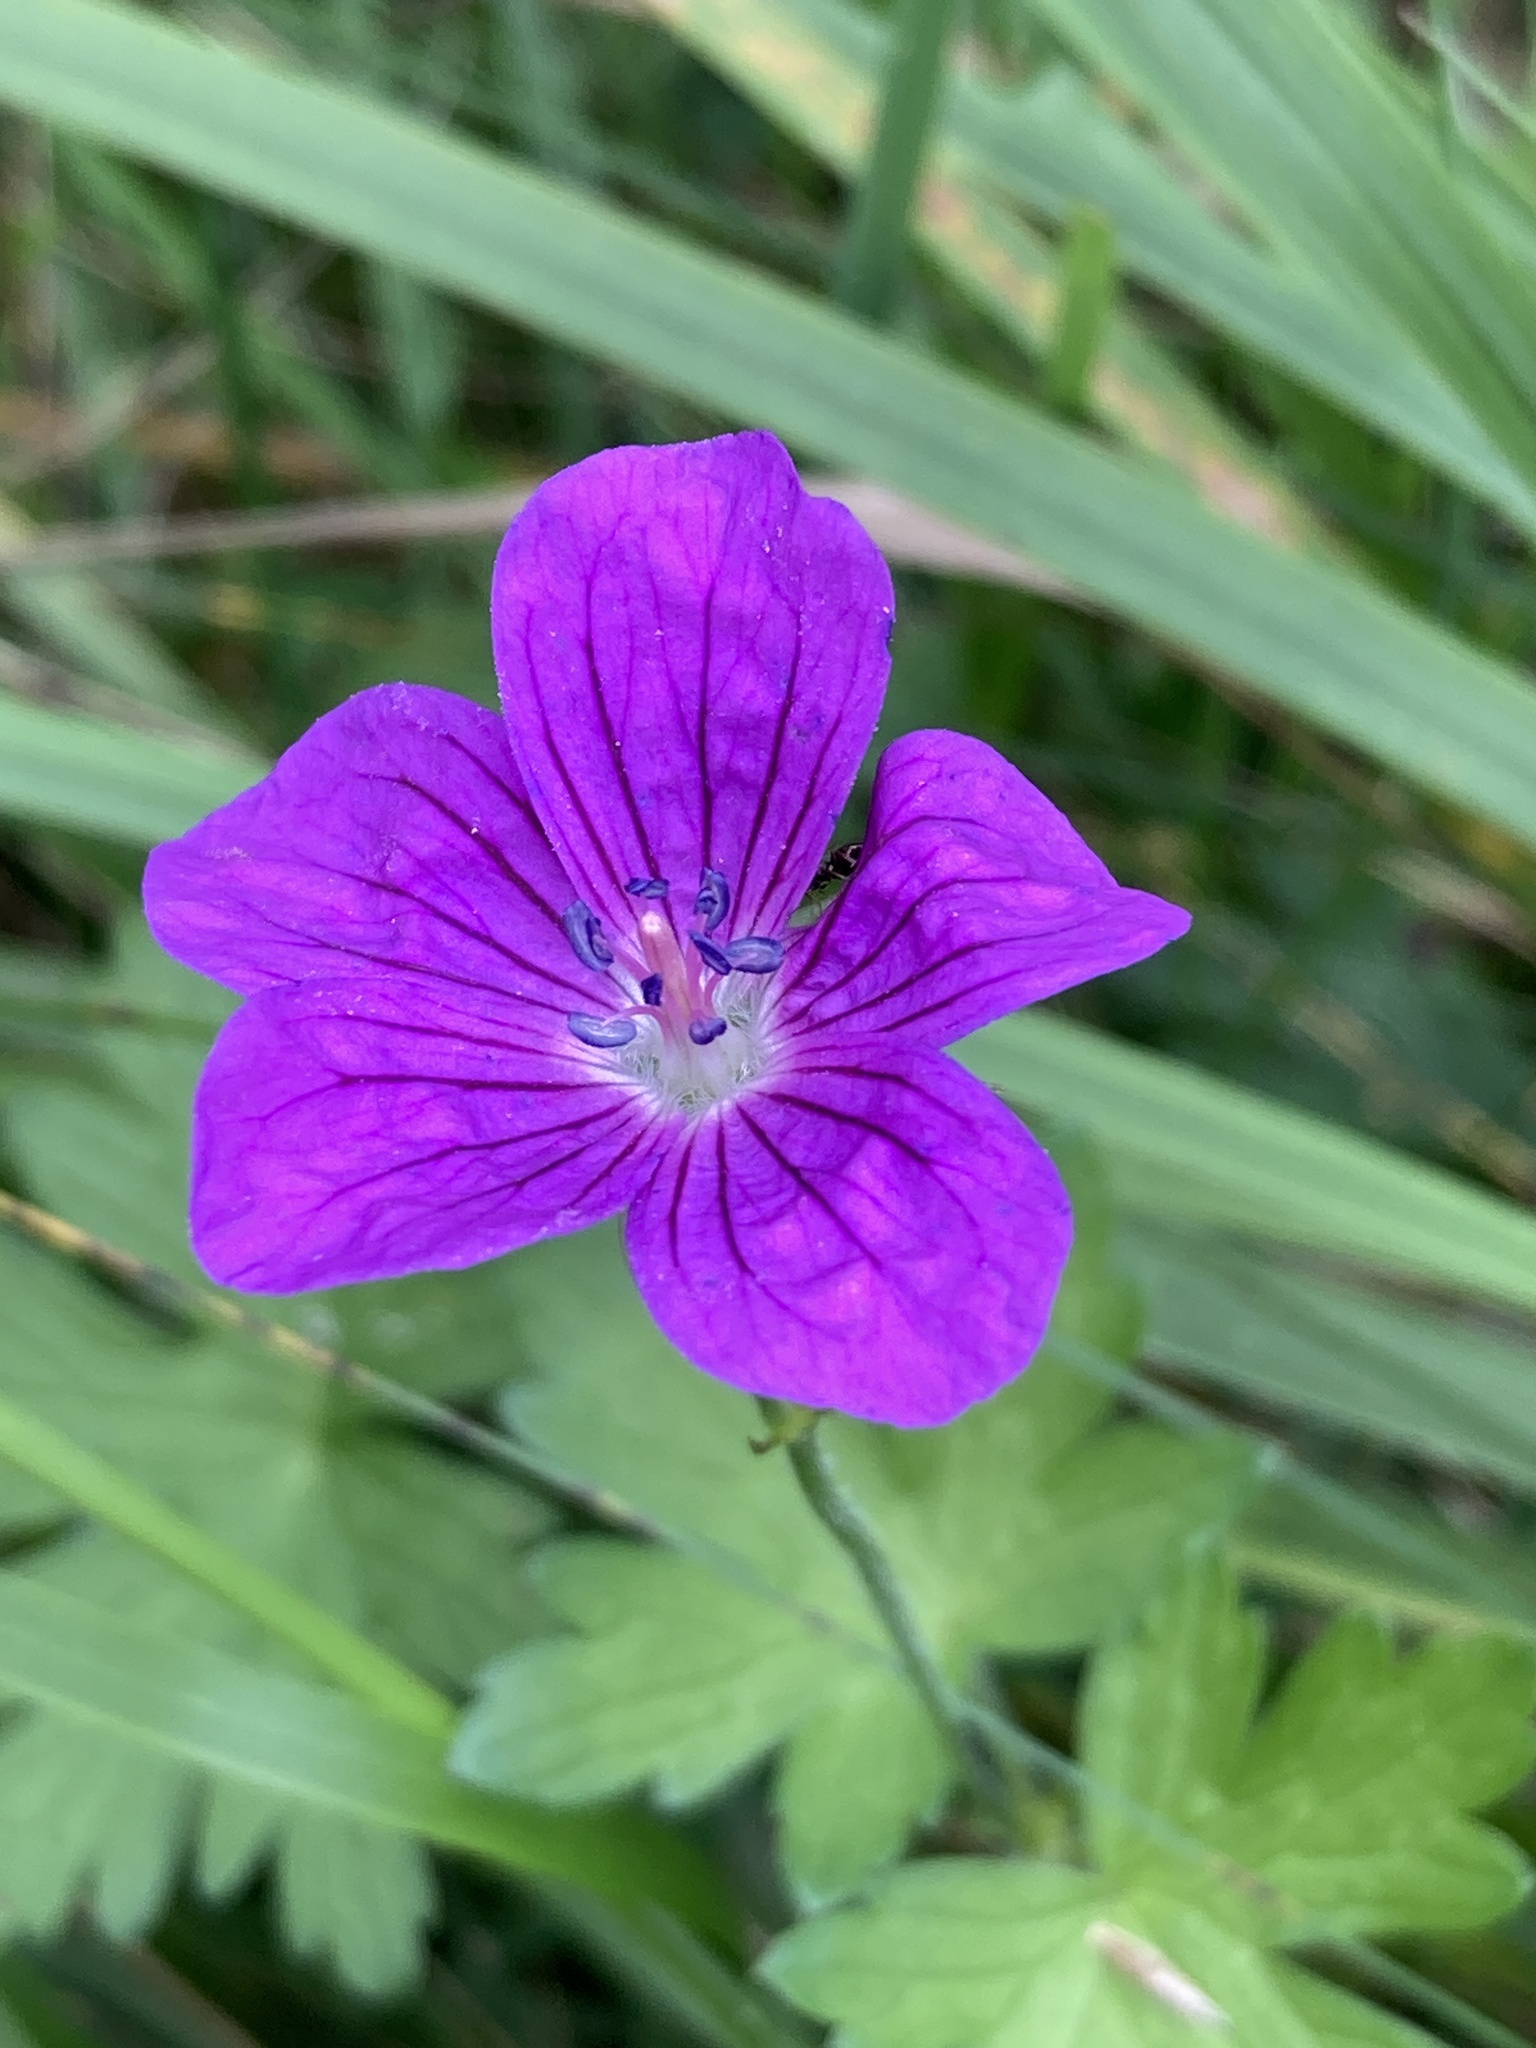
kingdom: Plantae
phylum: Tracheophyta
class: Magnoliopsida
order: Geraniales
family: Geraniaceae
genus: Geranium
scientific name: Geranium palustre
